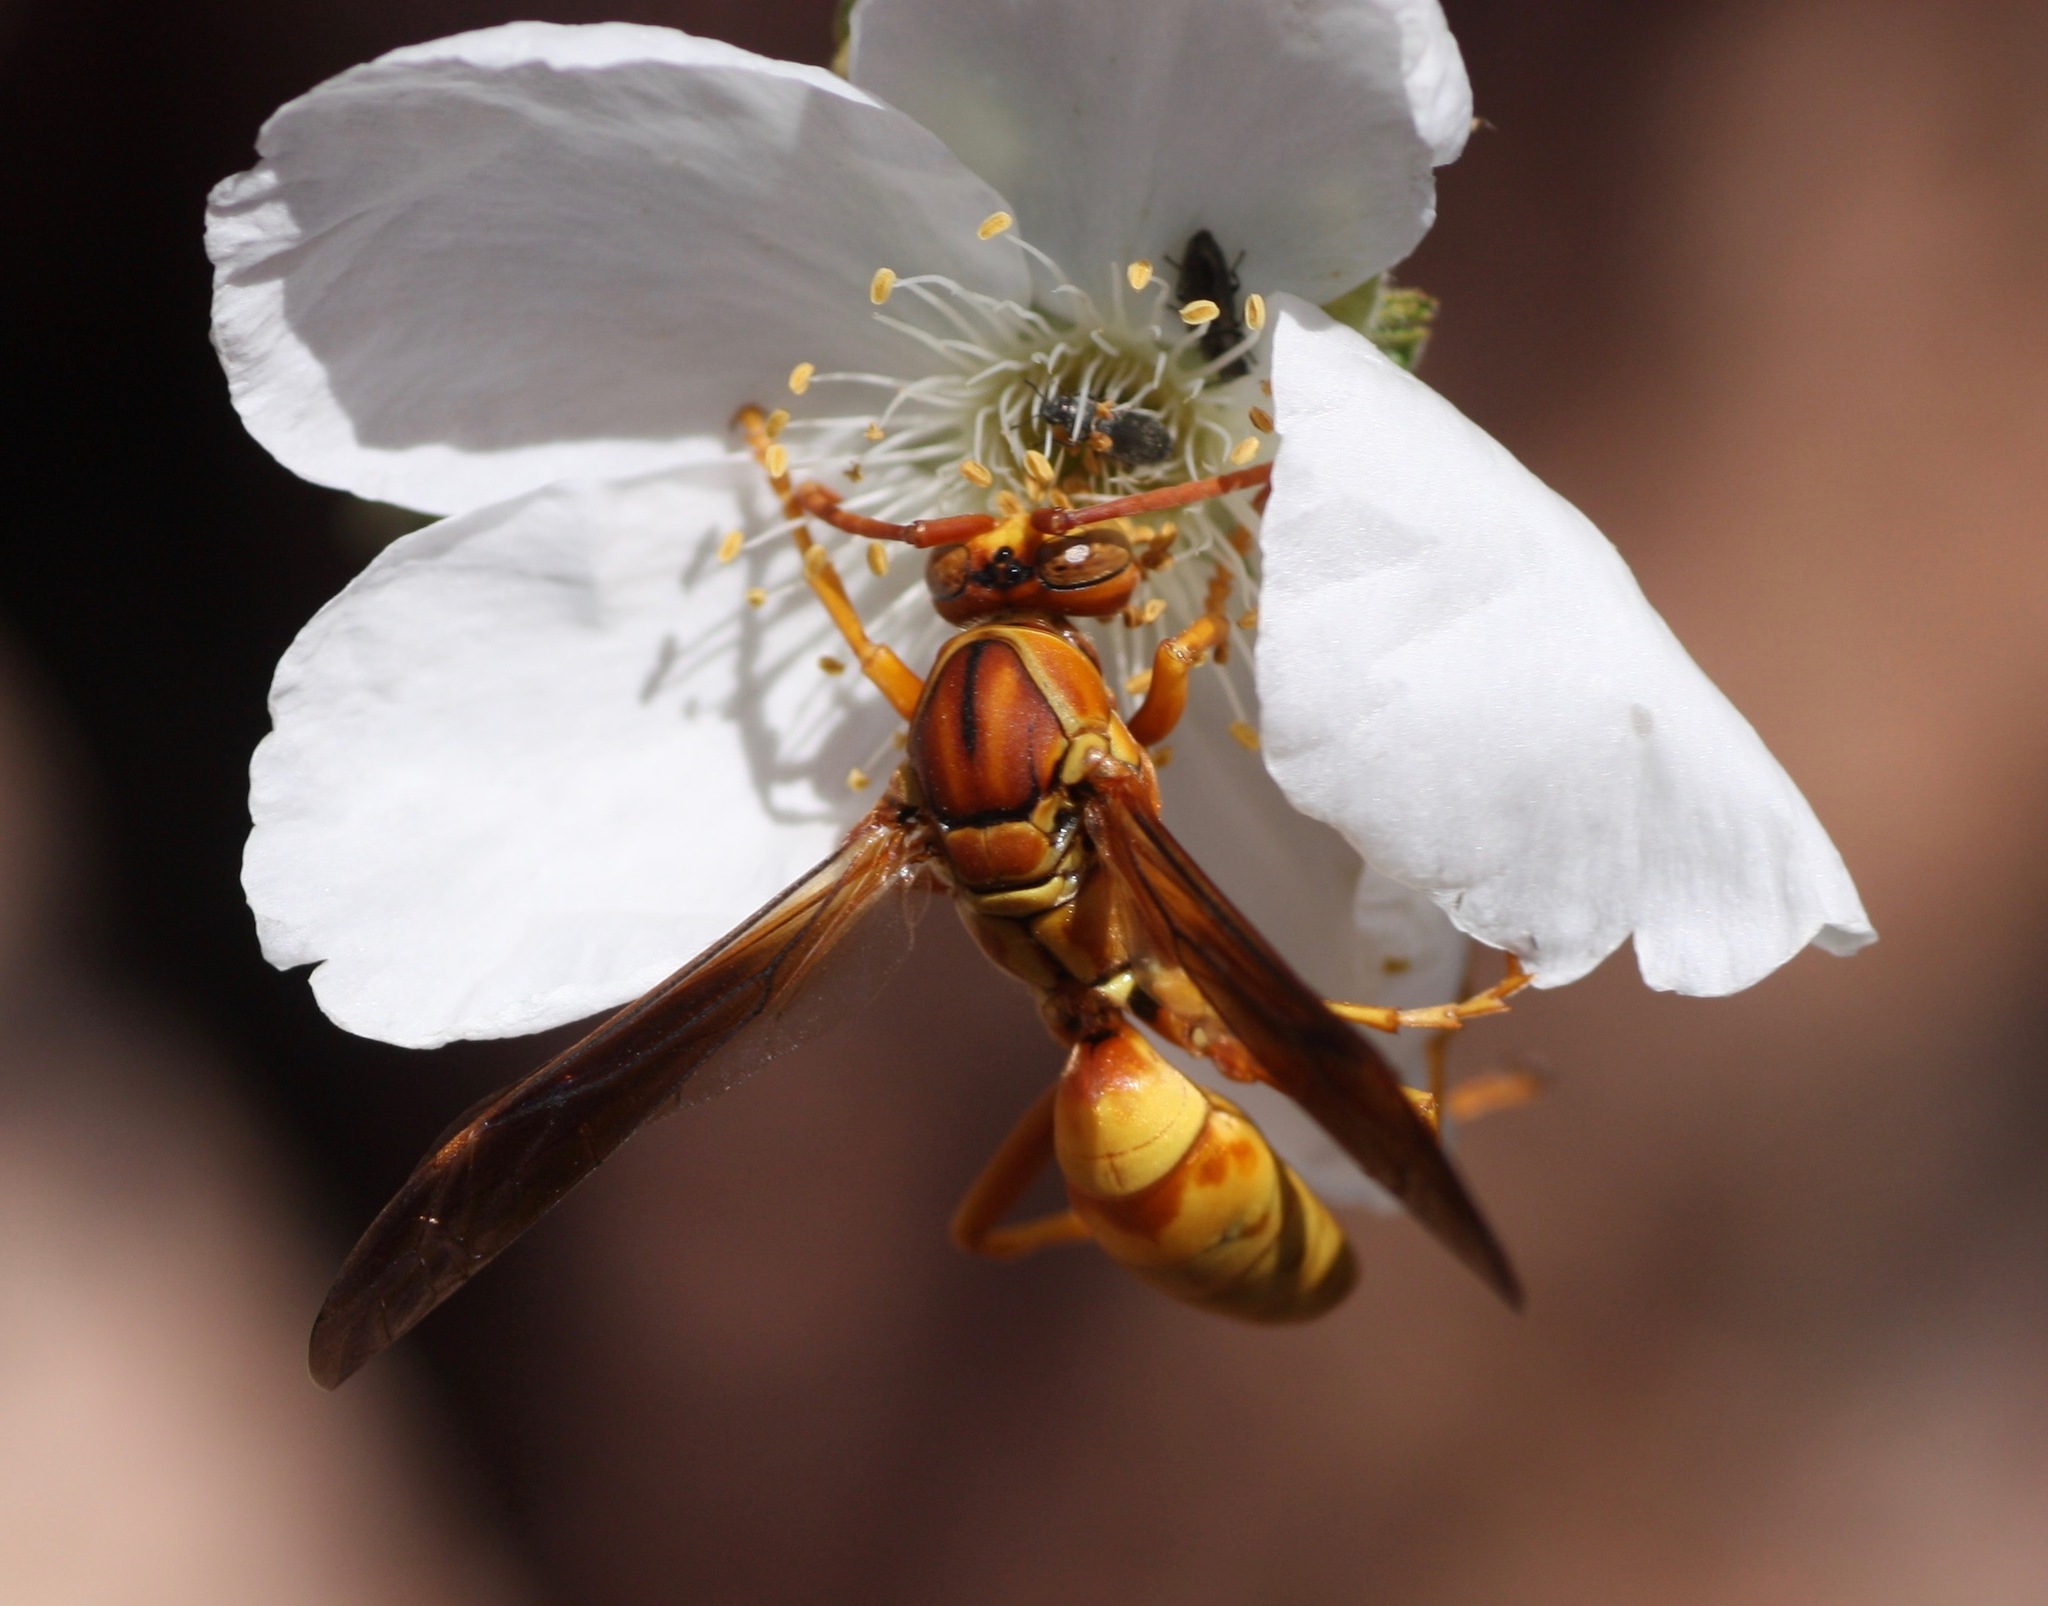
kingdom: Animalia
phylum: Arthropoda
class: Insecta
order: Hymenoptera
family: Eumenidae
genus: Polistes
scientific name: Polistes flavus
